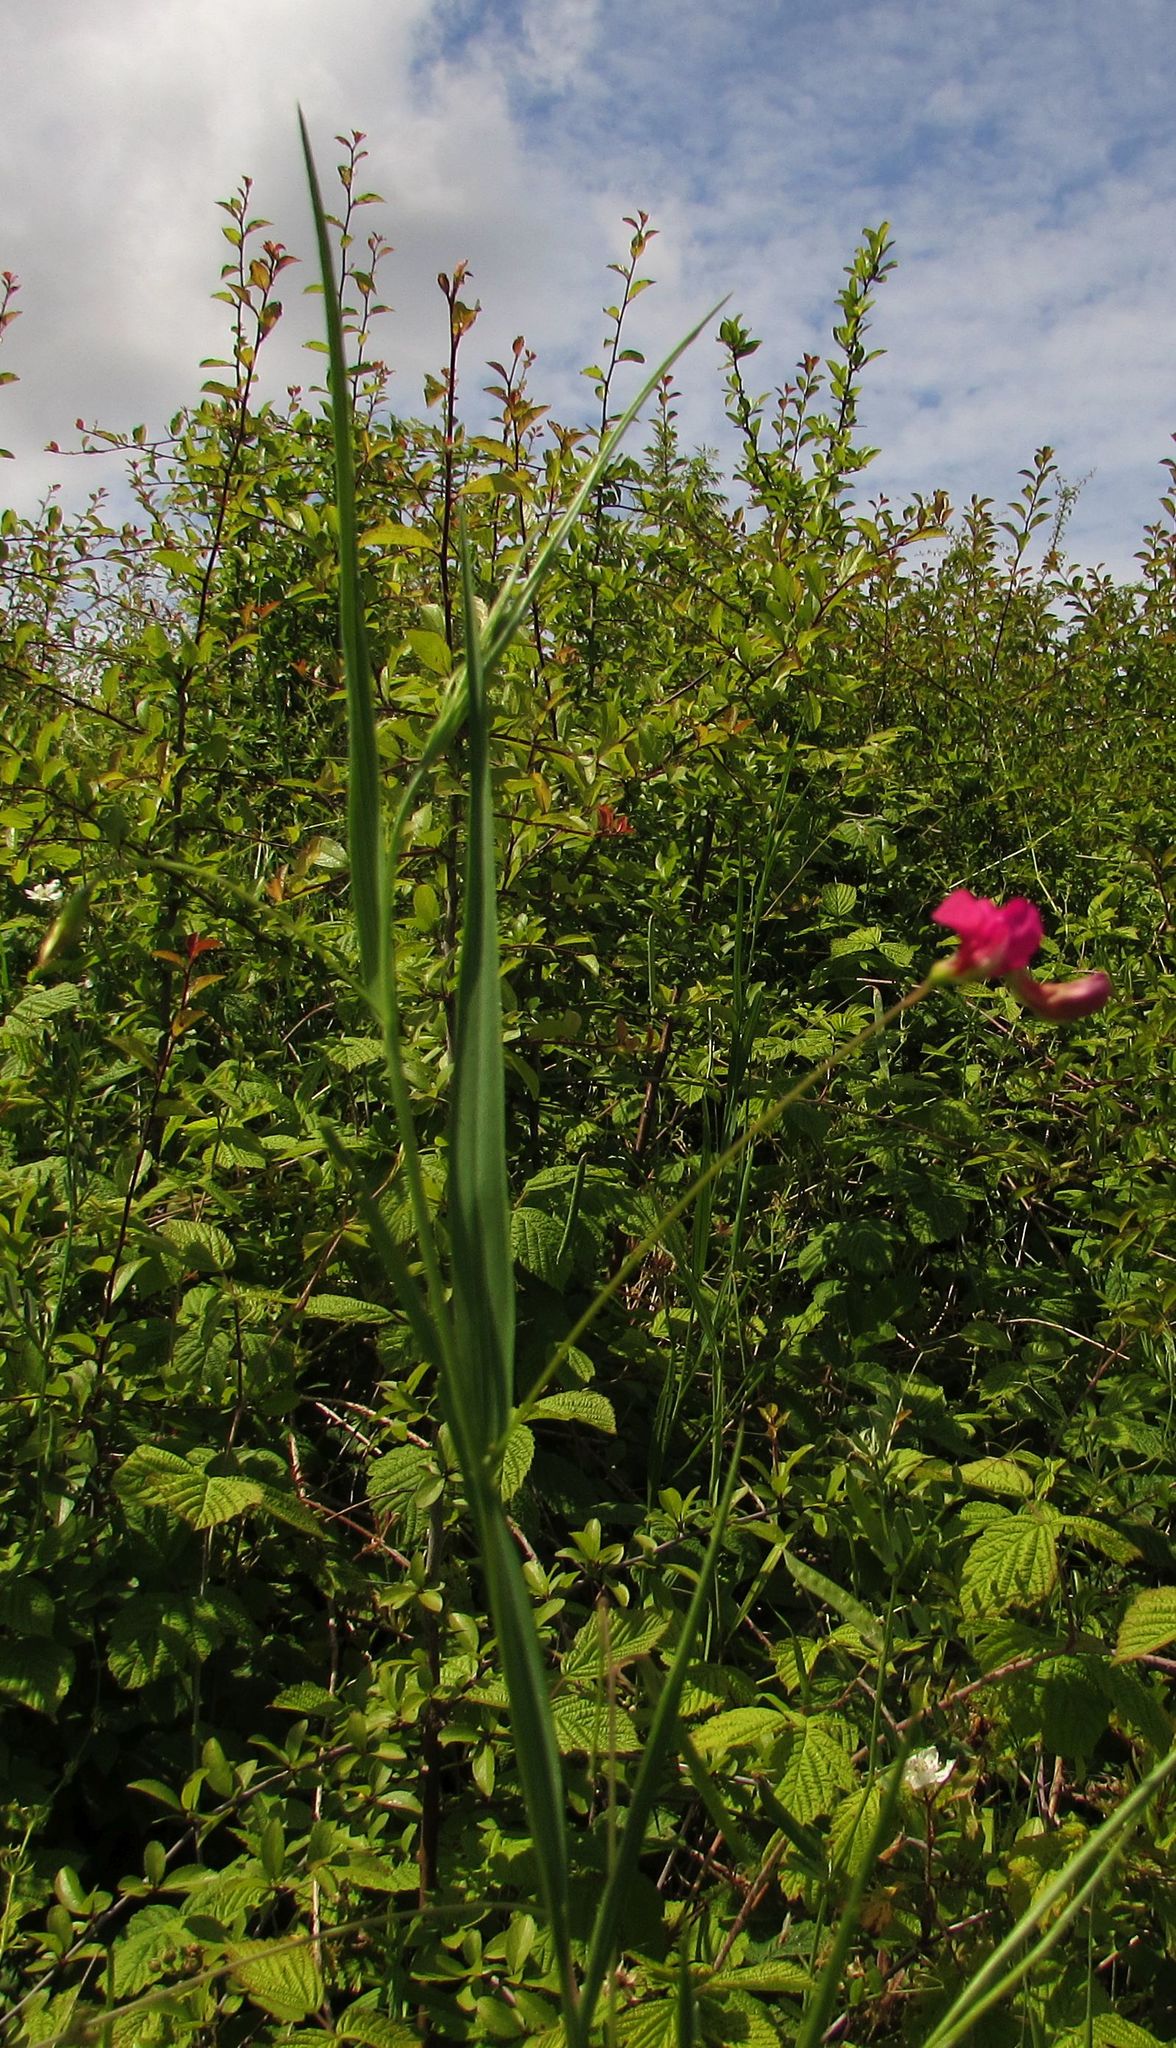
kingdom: Plantae
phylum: Tracheophyta
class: Magnoliopsida
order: Fabales
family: Fabaceae
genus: Lathyrus
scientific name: Lathyrus nissolia
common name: Grass vetchling
